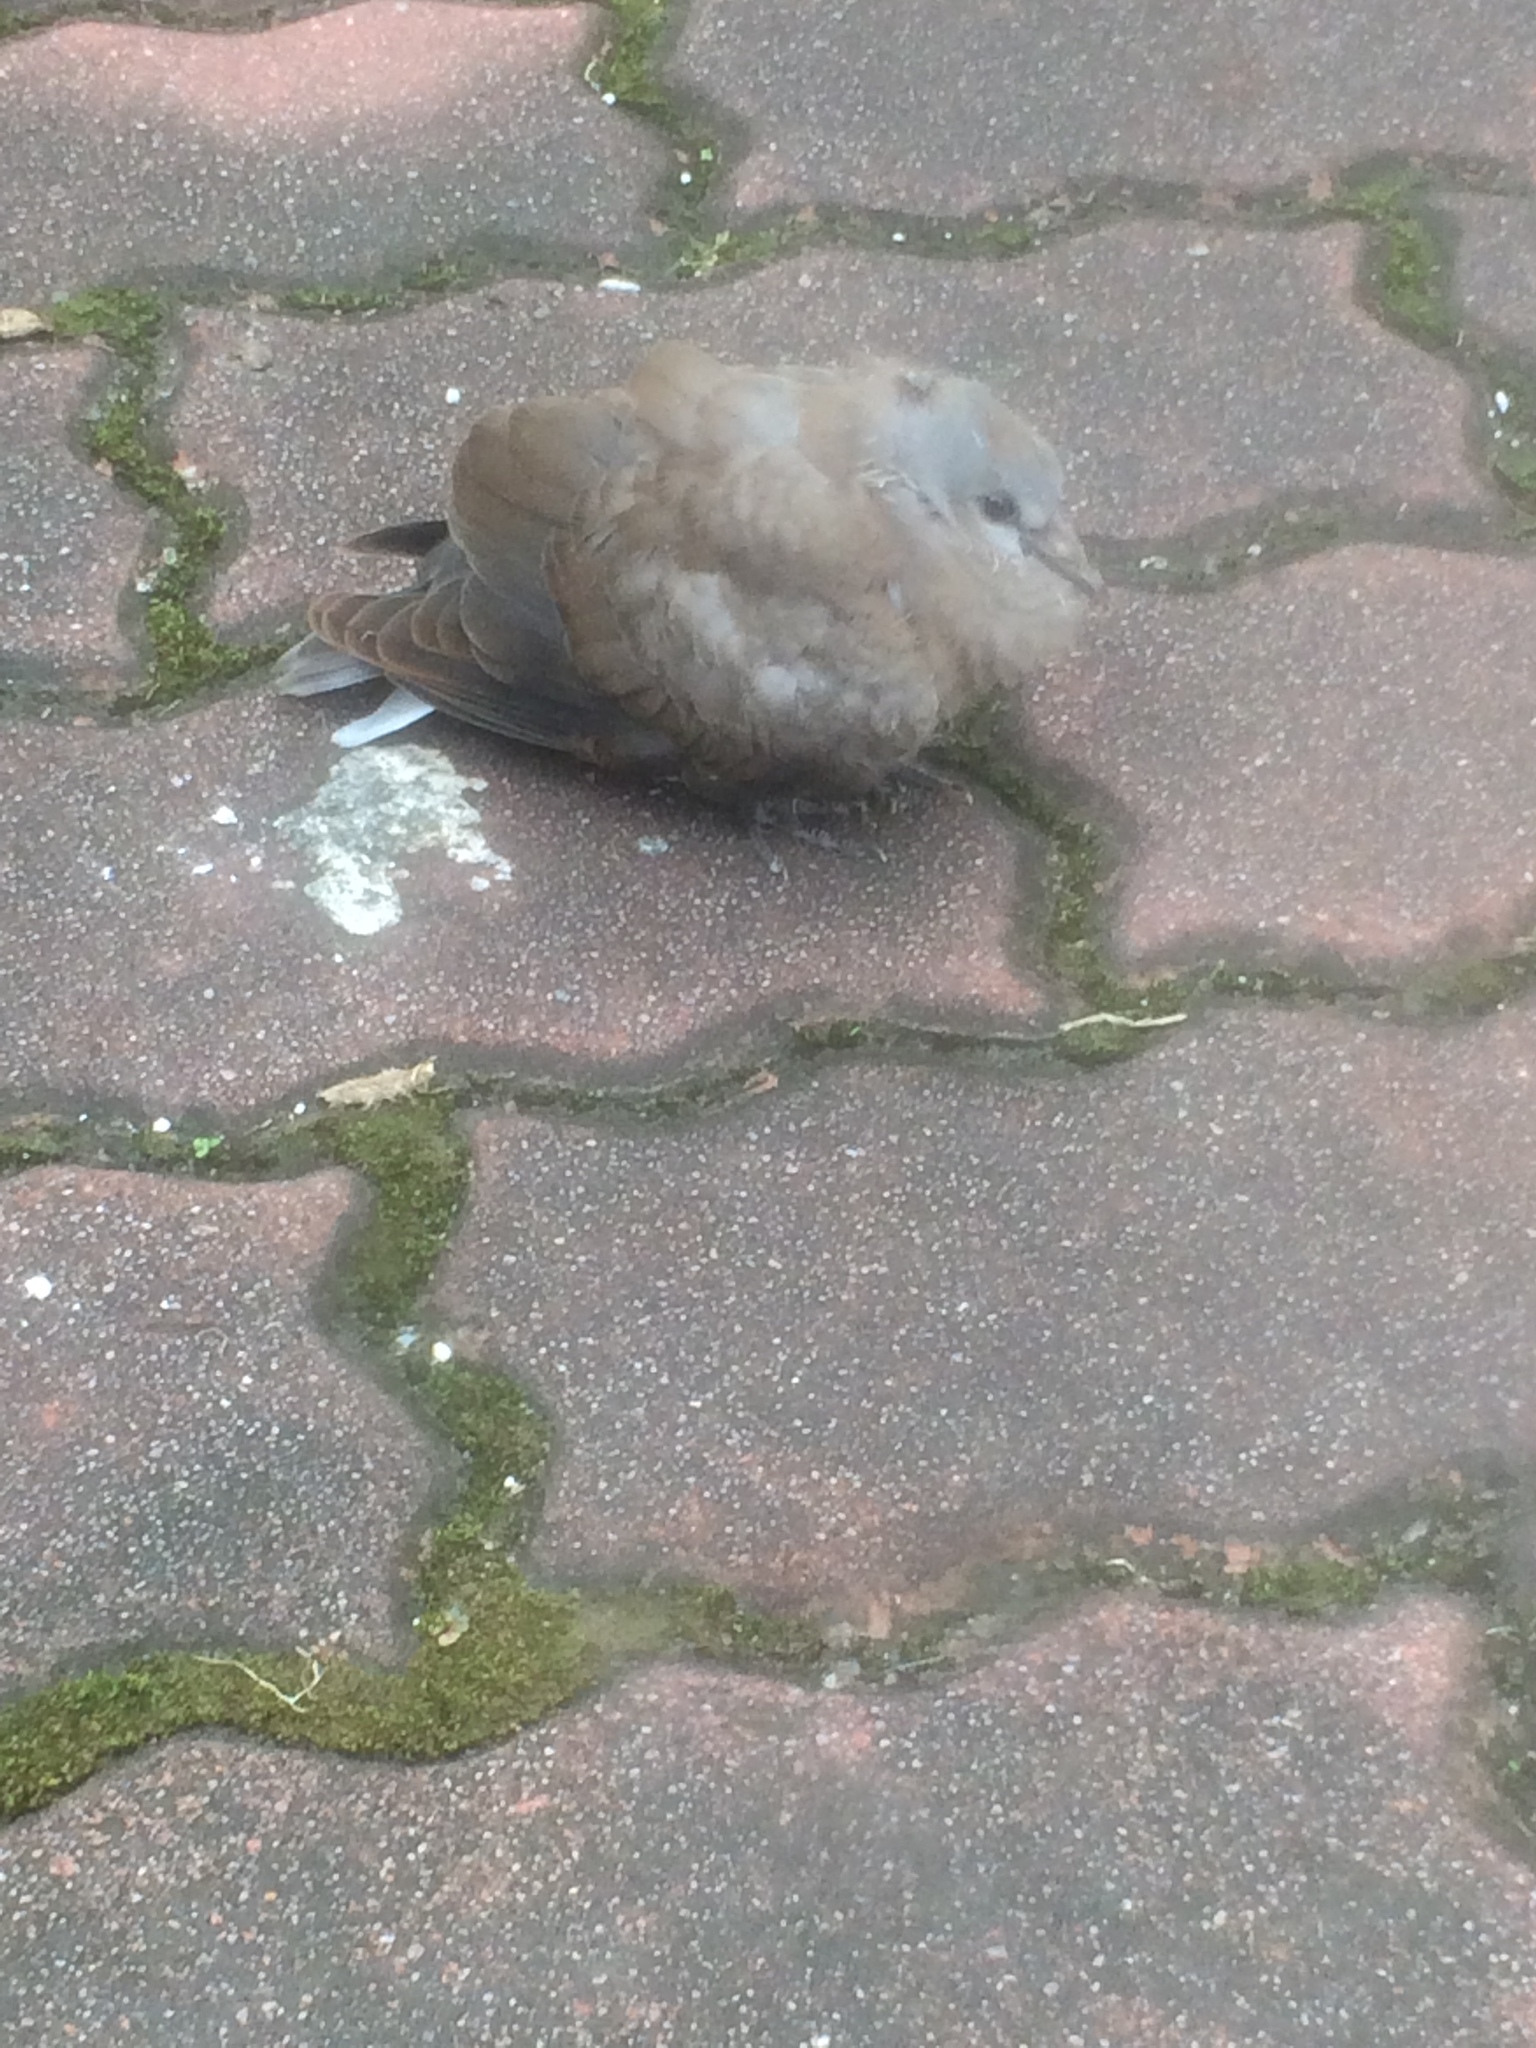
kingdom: Animalia
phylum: Chordata
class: Aves
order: Columbiformes
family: Columbidae
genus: Streptopelia
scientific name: Streptopelia tranquebarica
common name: Red turtle dove
